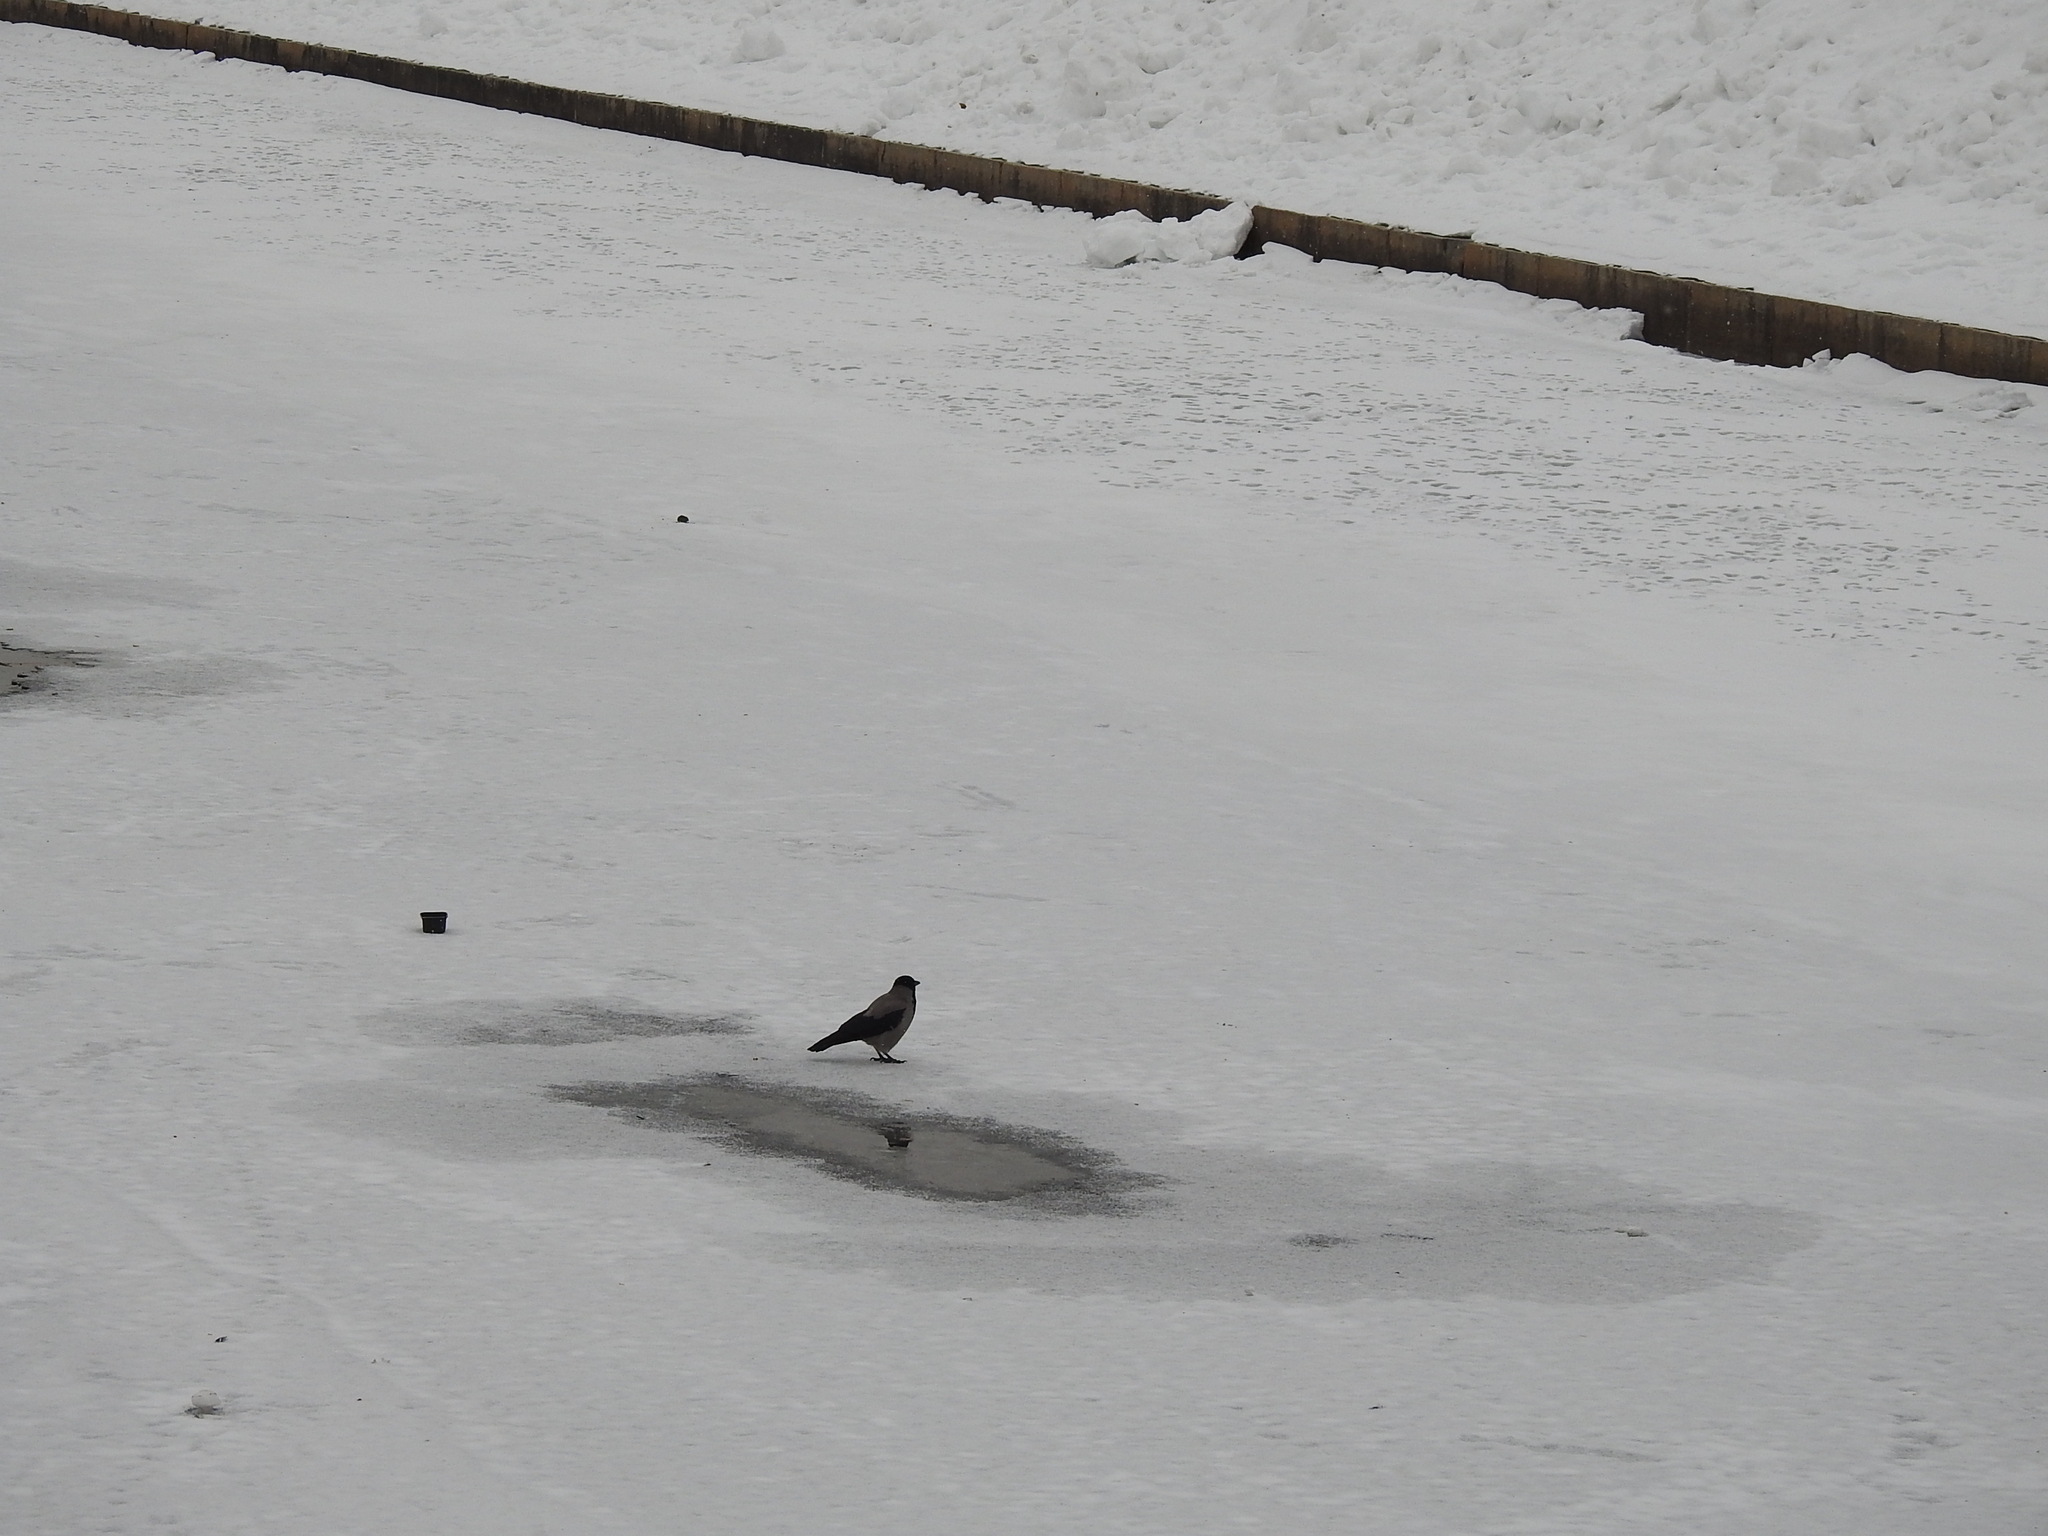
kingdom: Animalia
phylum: Chordata
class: Aves
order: Passeriformes
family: Corvidae
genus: Corvus
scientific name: Corvus cornix
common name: Hooded crow
